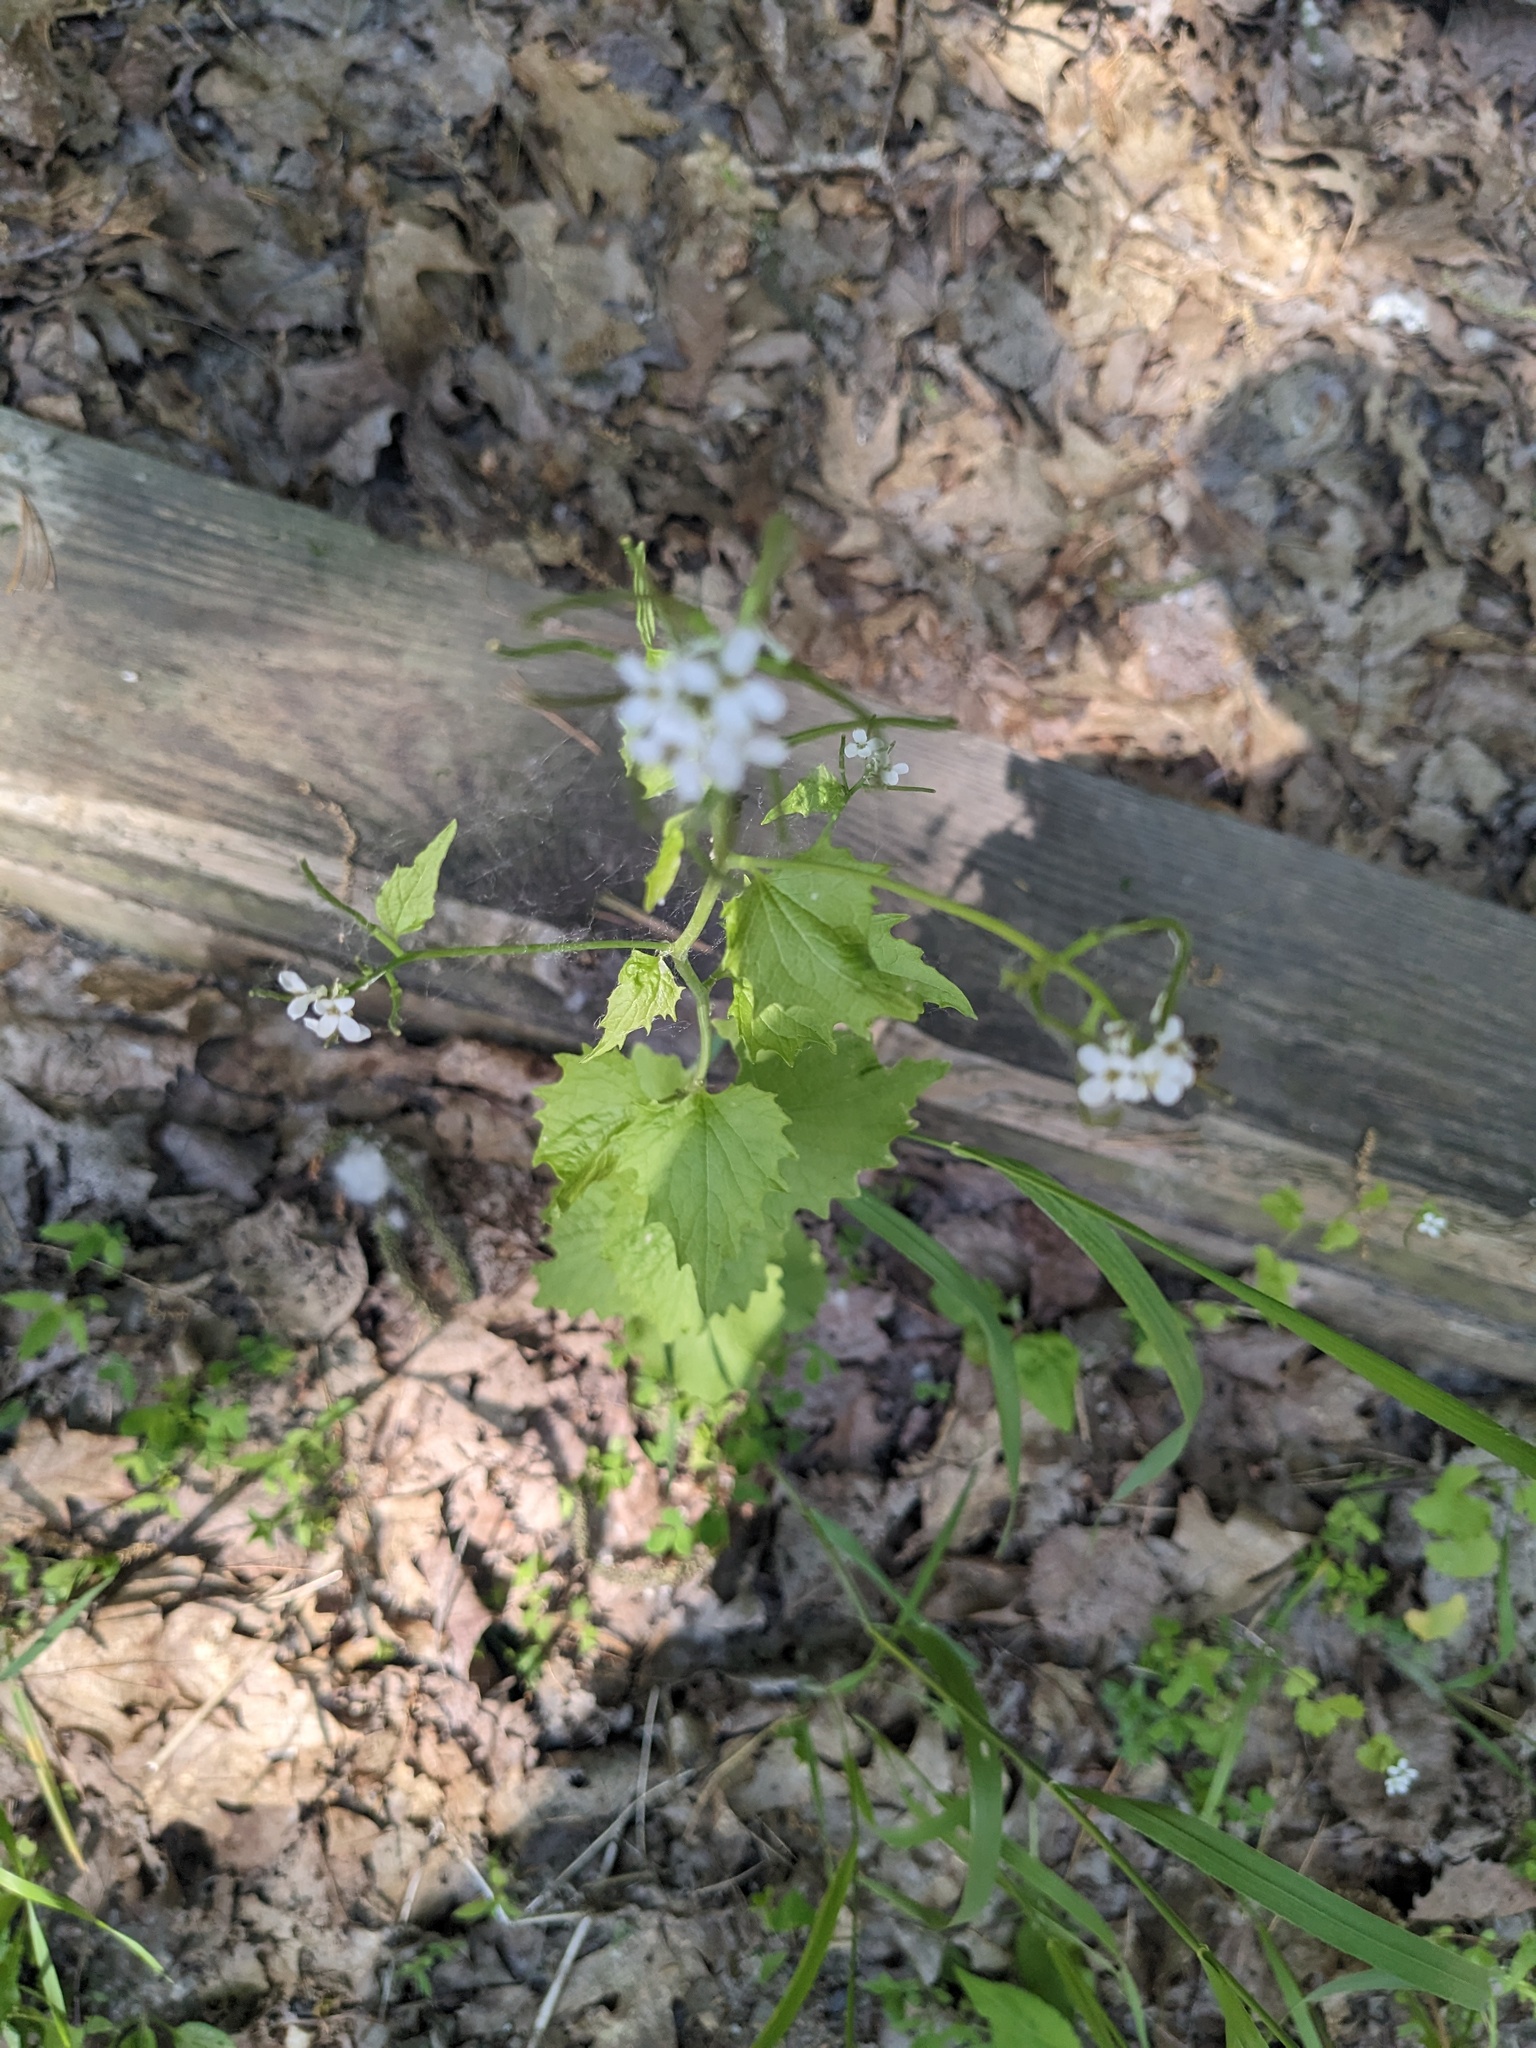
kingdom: Plantae
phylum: Tracheophyta
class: Magnoliopsida
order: Brassicales
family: Brassicaceae
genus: Alliaria
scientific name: Alliaria petiolata
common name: Garlic mustard
